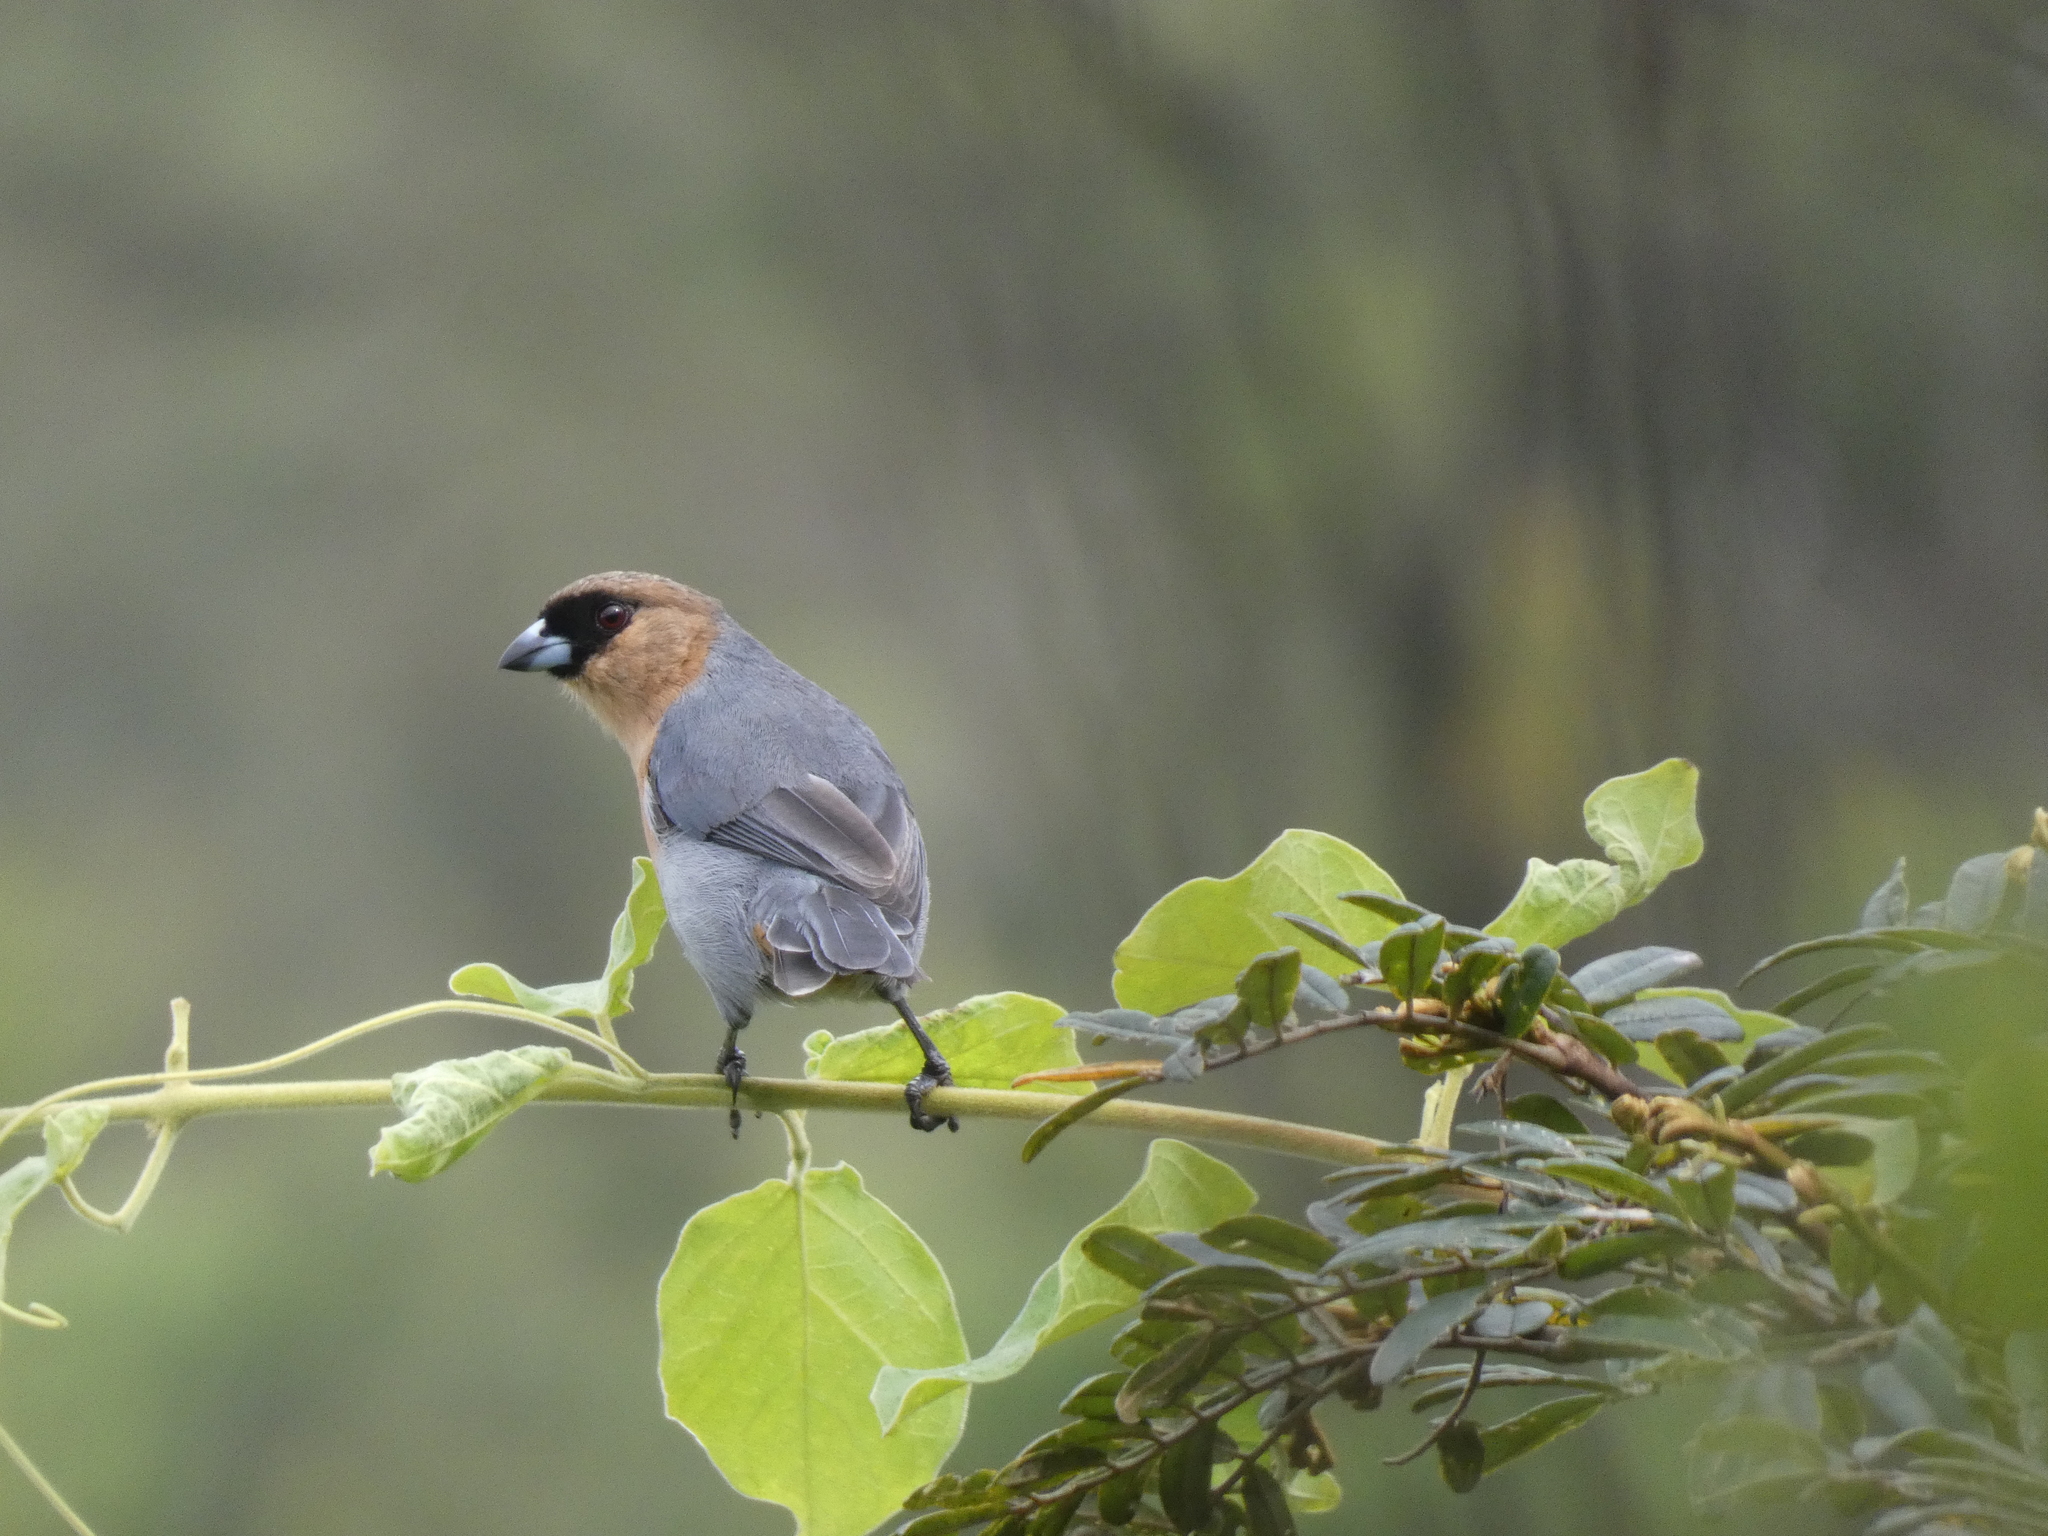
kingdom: Animalia
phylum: Chordata
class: Aves
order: Passeriformes
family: Thraupidae
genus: Schistochlamys
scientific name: Schistochlamys ruficapillus
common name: Cinnamon tanager
